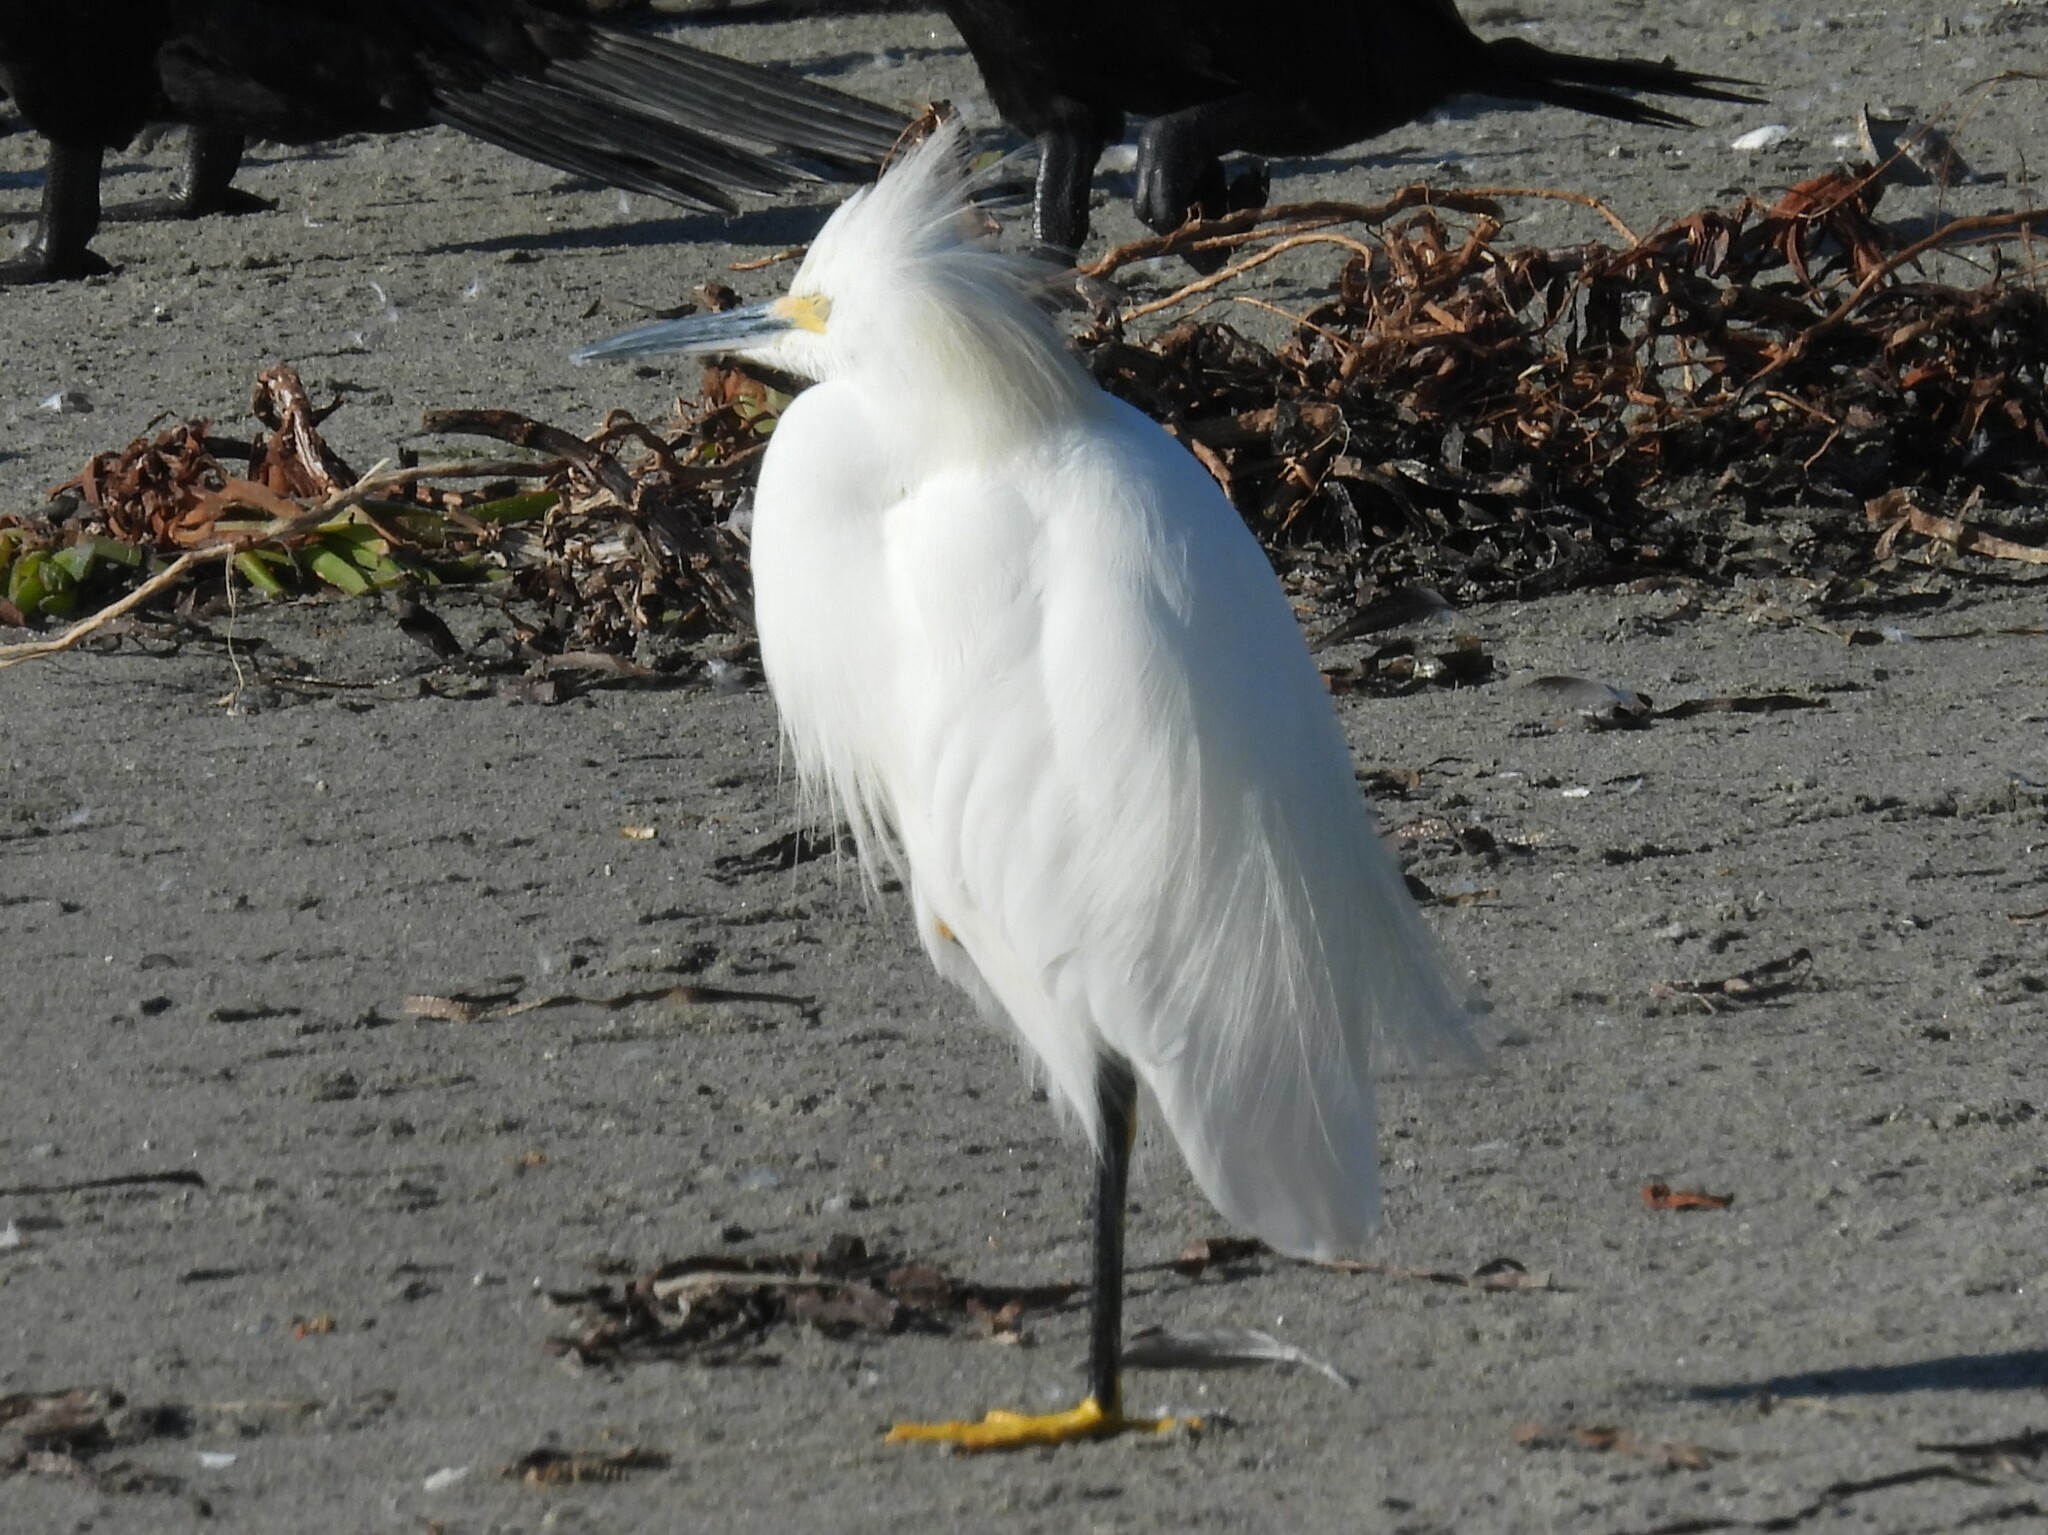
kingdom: Animalia
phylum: Chordata
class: Aves
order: Pelecaniformes
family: Ardeidae
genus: Egretta
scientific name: Egretta thula
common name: Snowy egret
